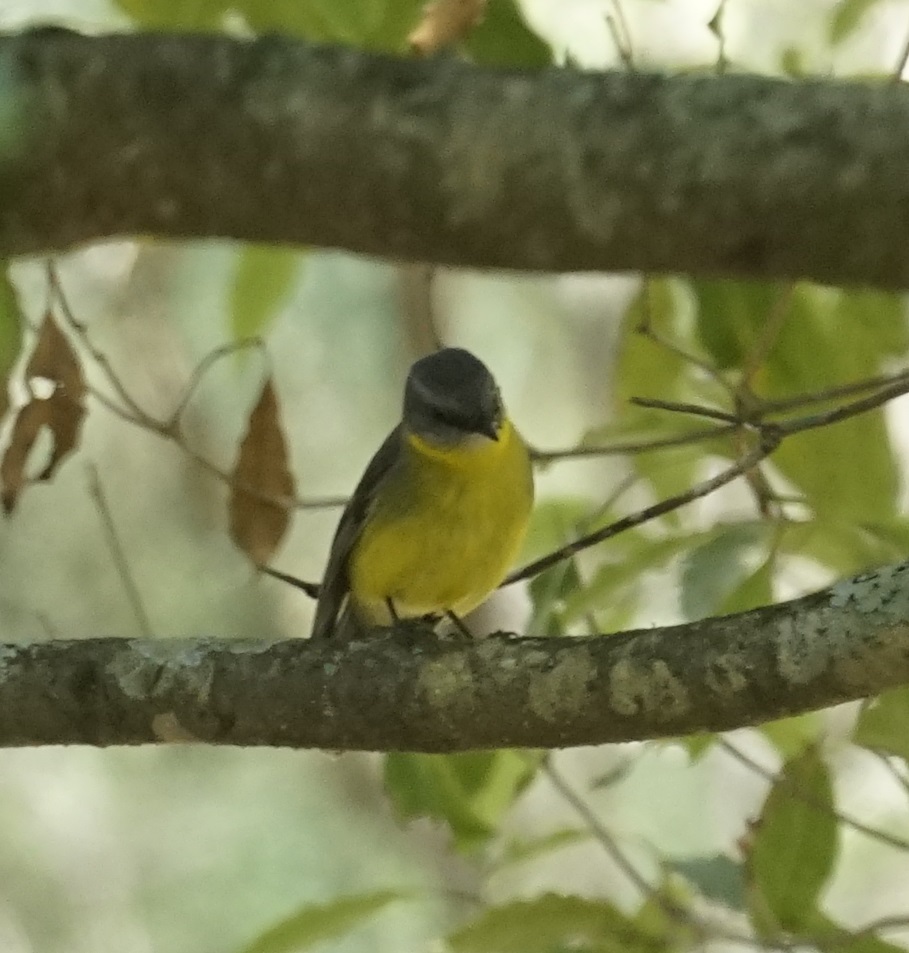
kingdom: Animalia
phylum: Chordata
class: Aves
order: Passeriformes
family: Petroicidae
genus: Eopsaltria
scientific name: Eopsaltria australis
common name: Eastern yellow robin
